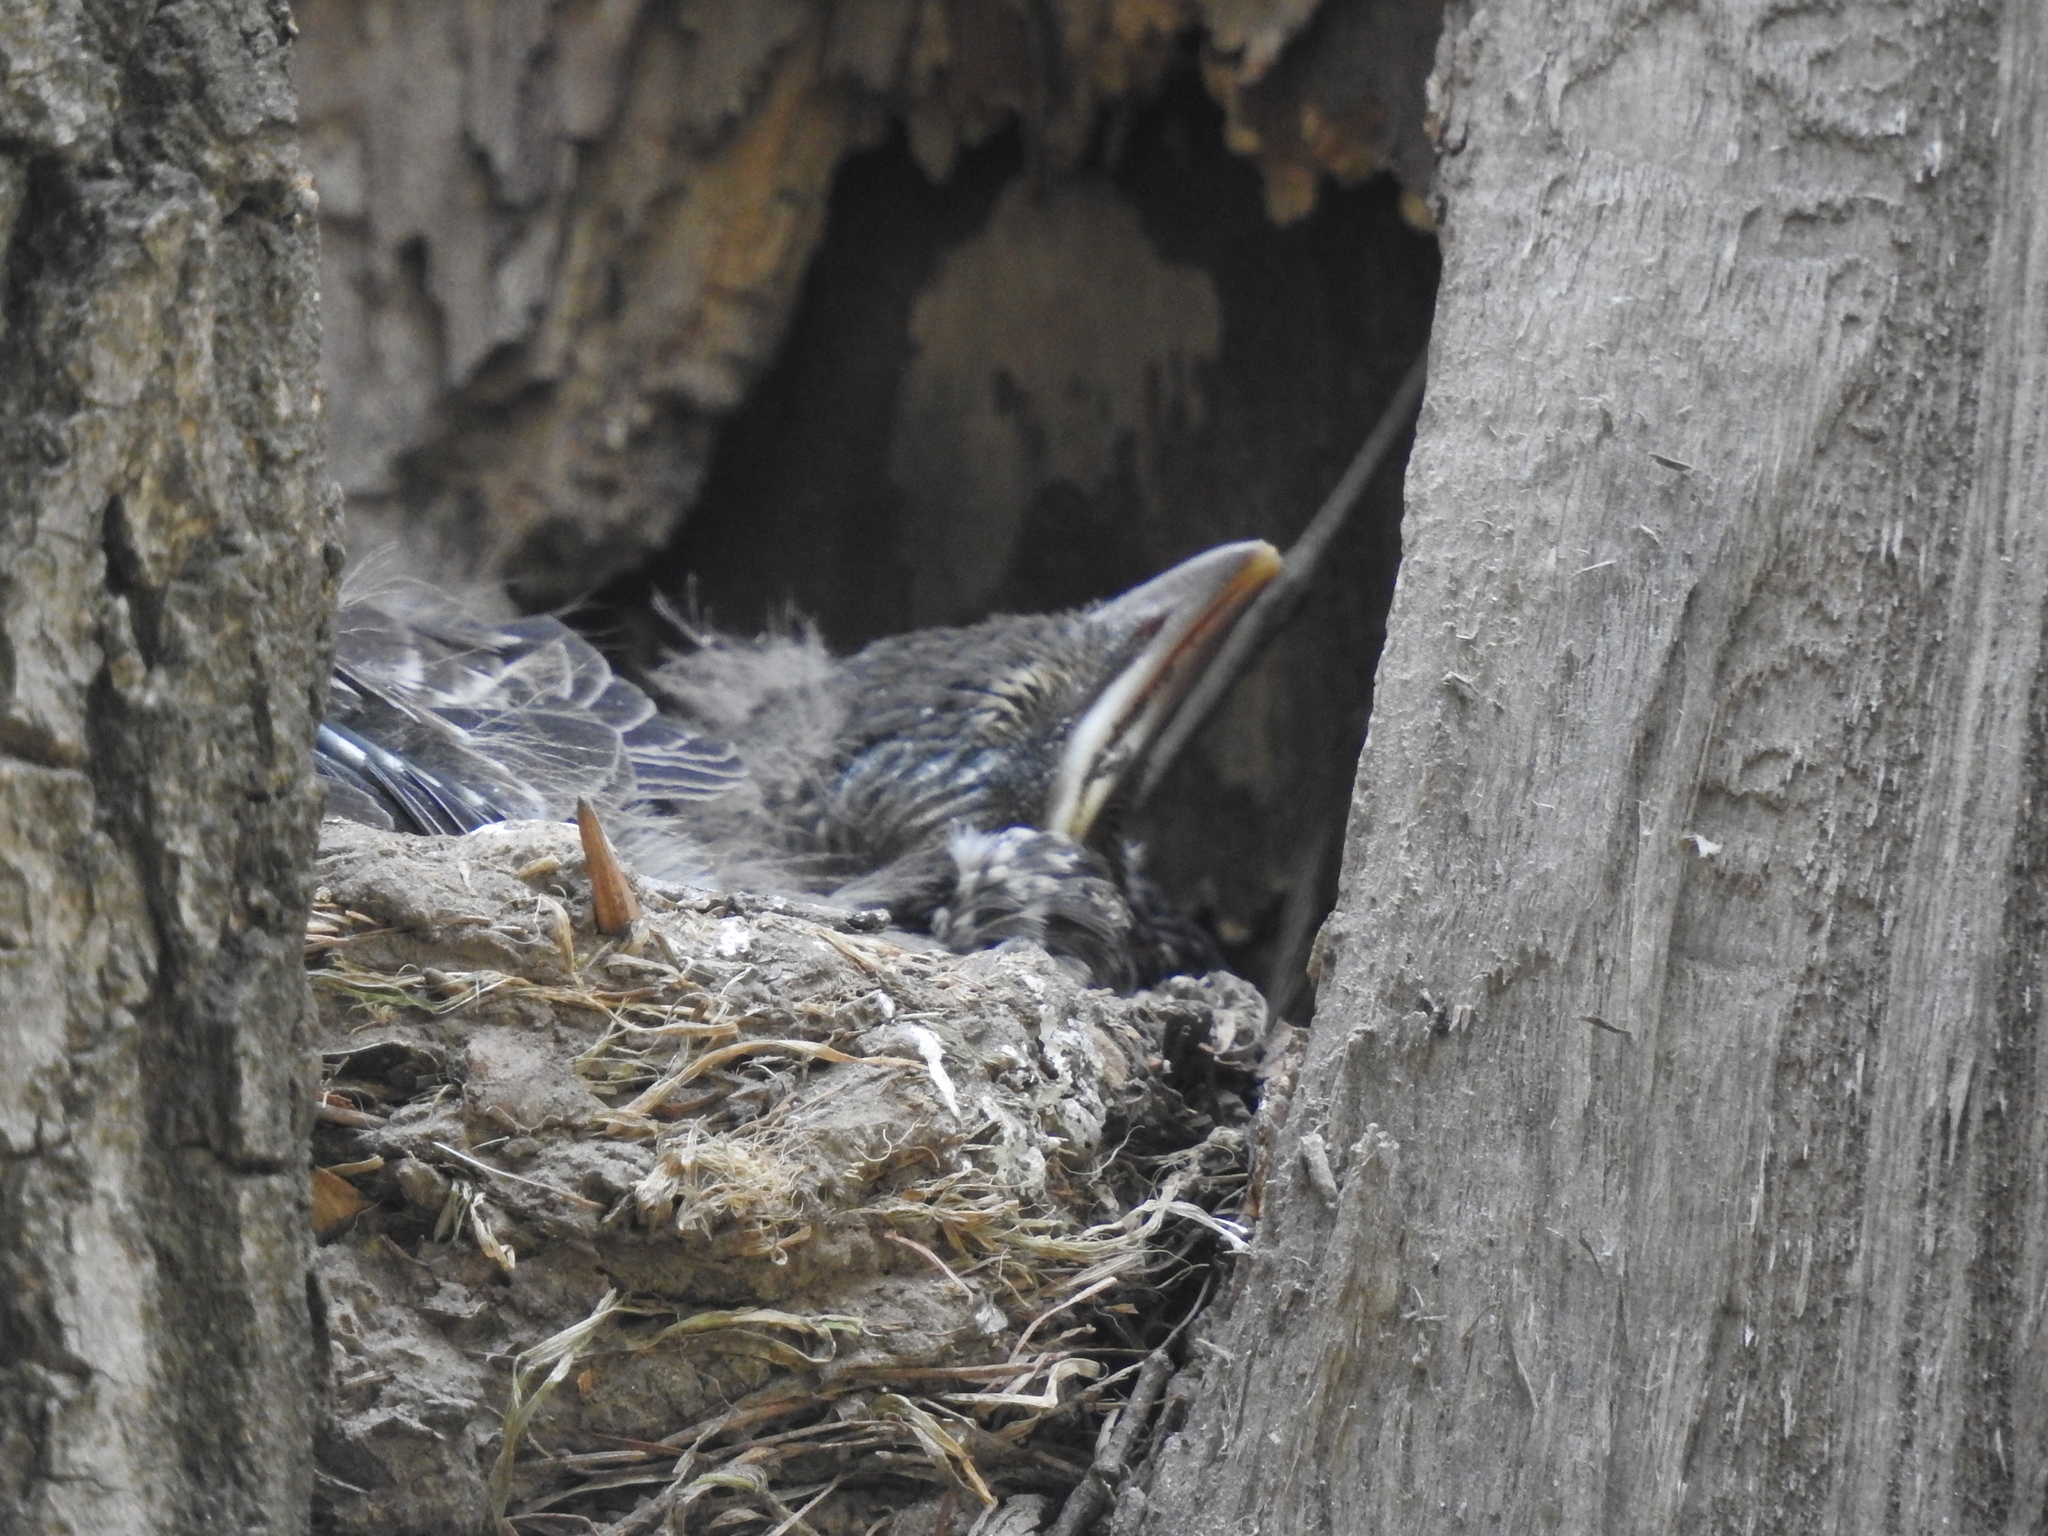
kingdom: Animalia
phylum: Chordata
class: Aves
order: Passeriformes
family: Turdidae
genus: Turdus
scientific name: Turdus pilaris
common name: Fieldfare
